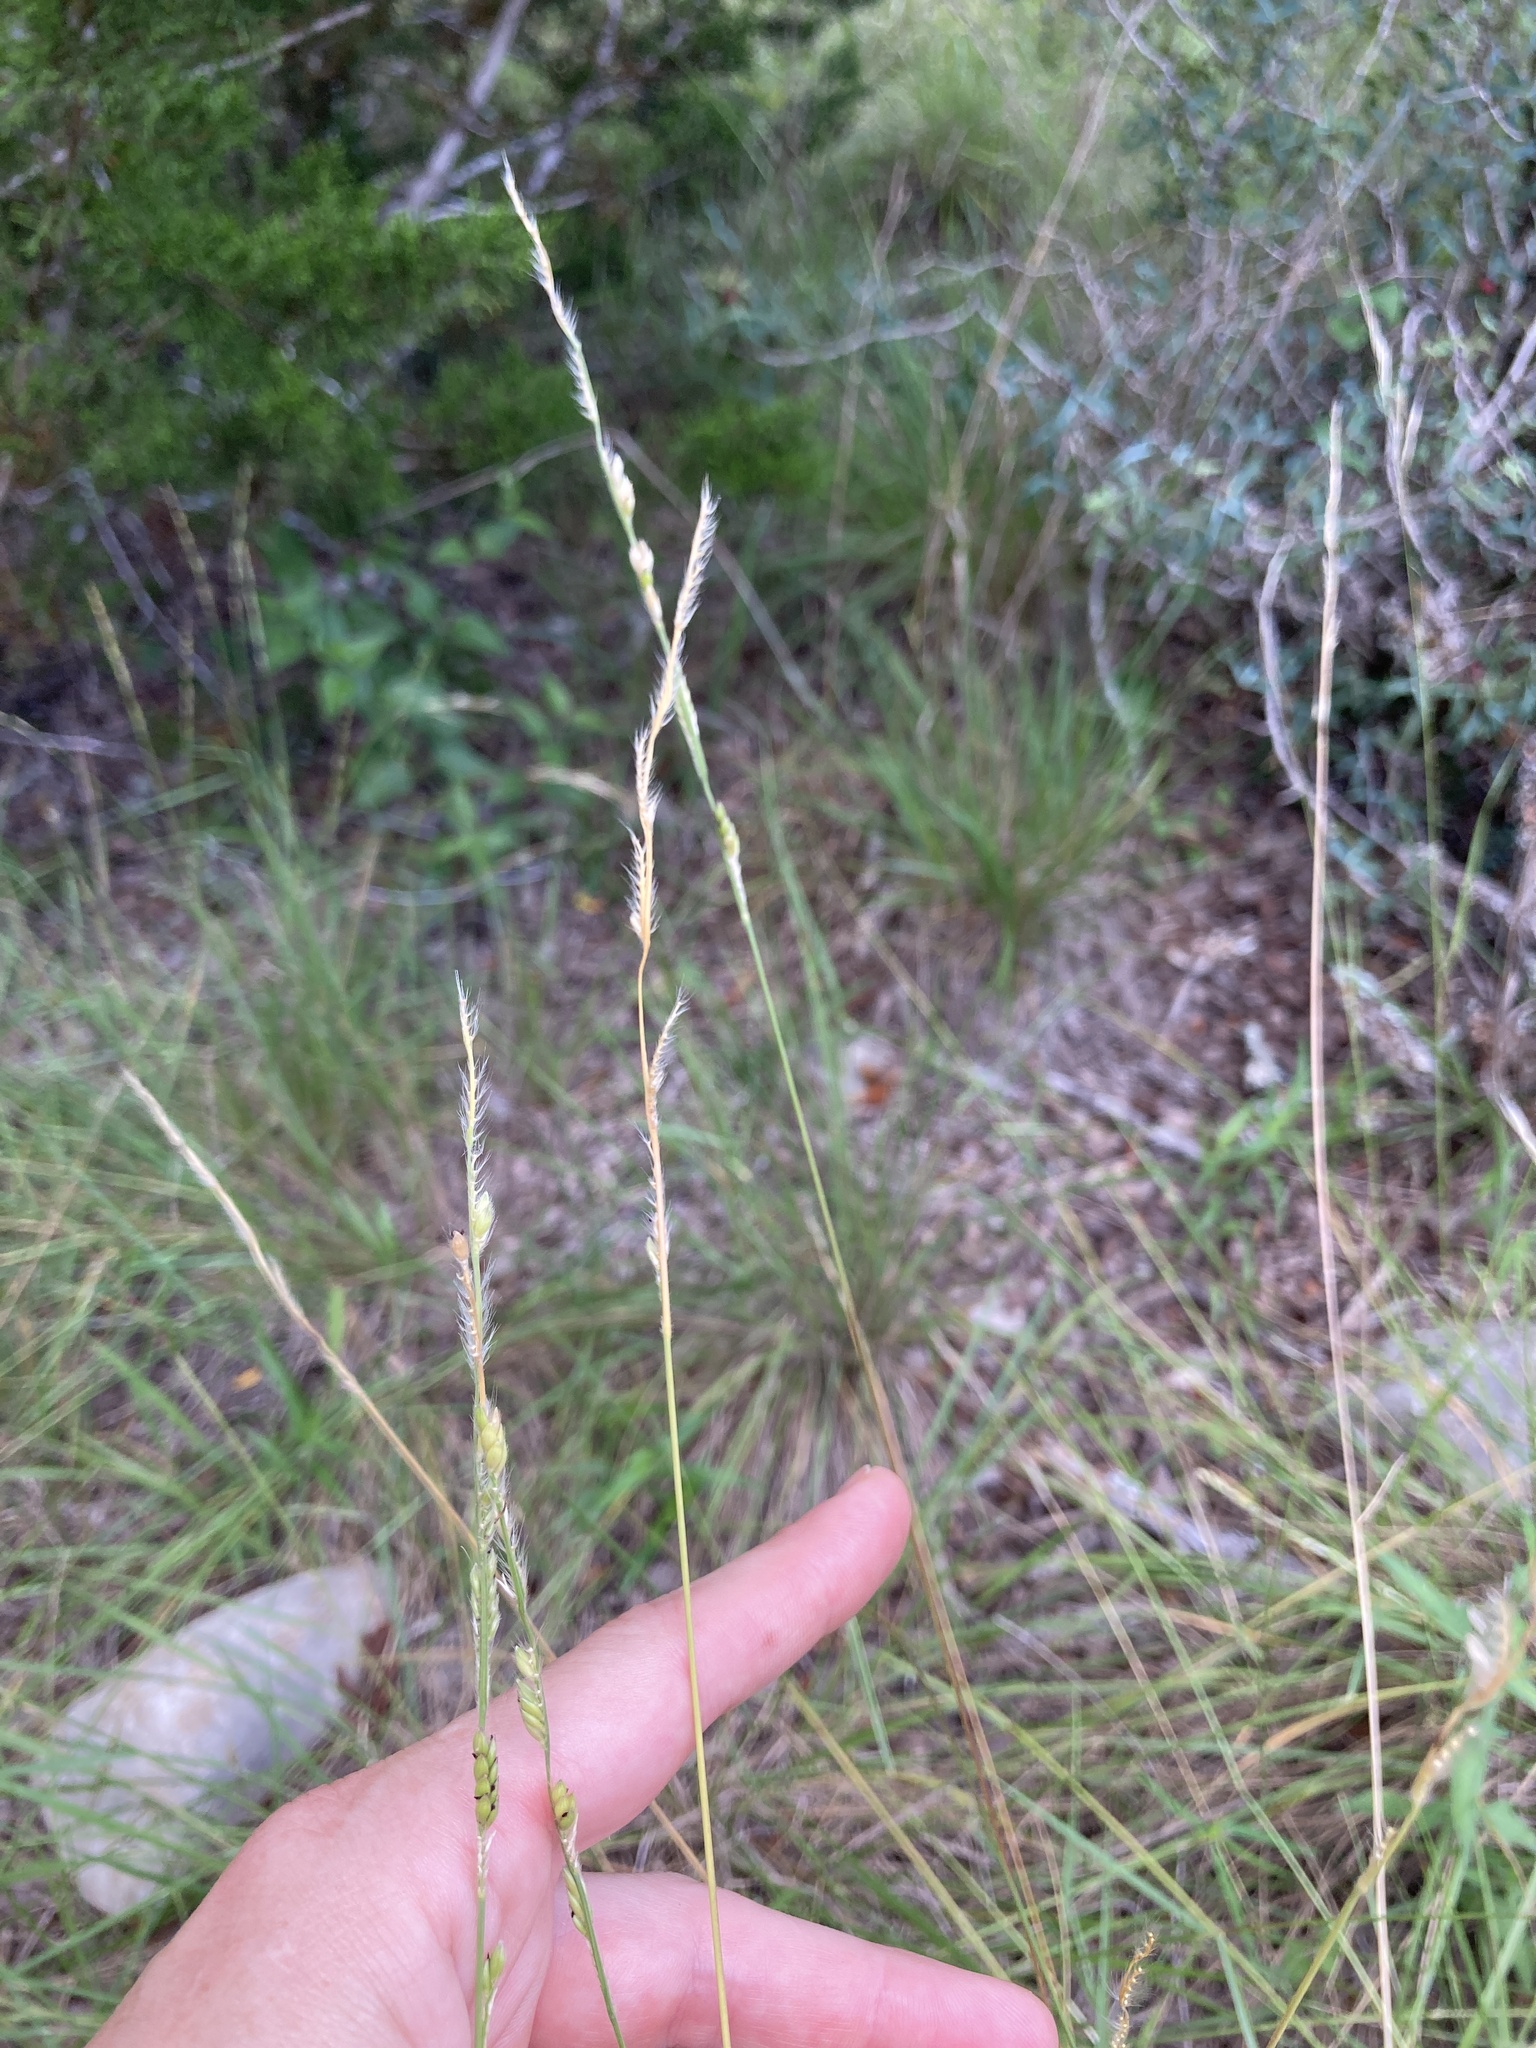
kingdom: Plantae
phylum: Tracheophyta
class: Liliopsida
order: Poales
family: Poaceae
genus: Eriochloa
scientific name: Eriochloa sericea
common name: Texas cup grass
